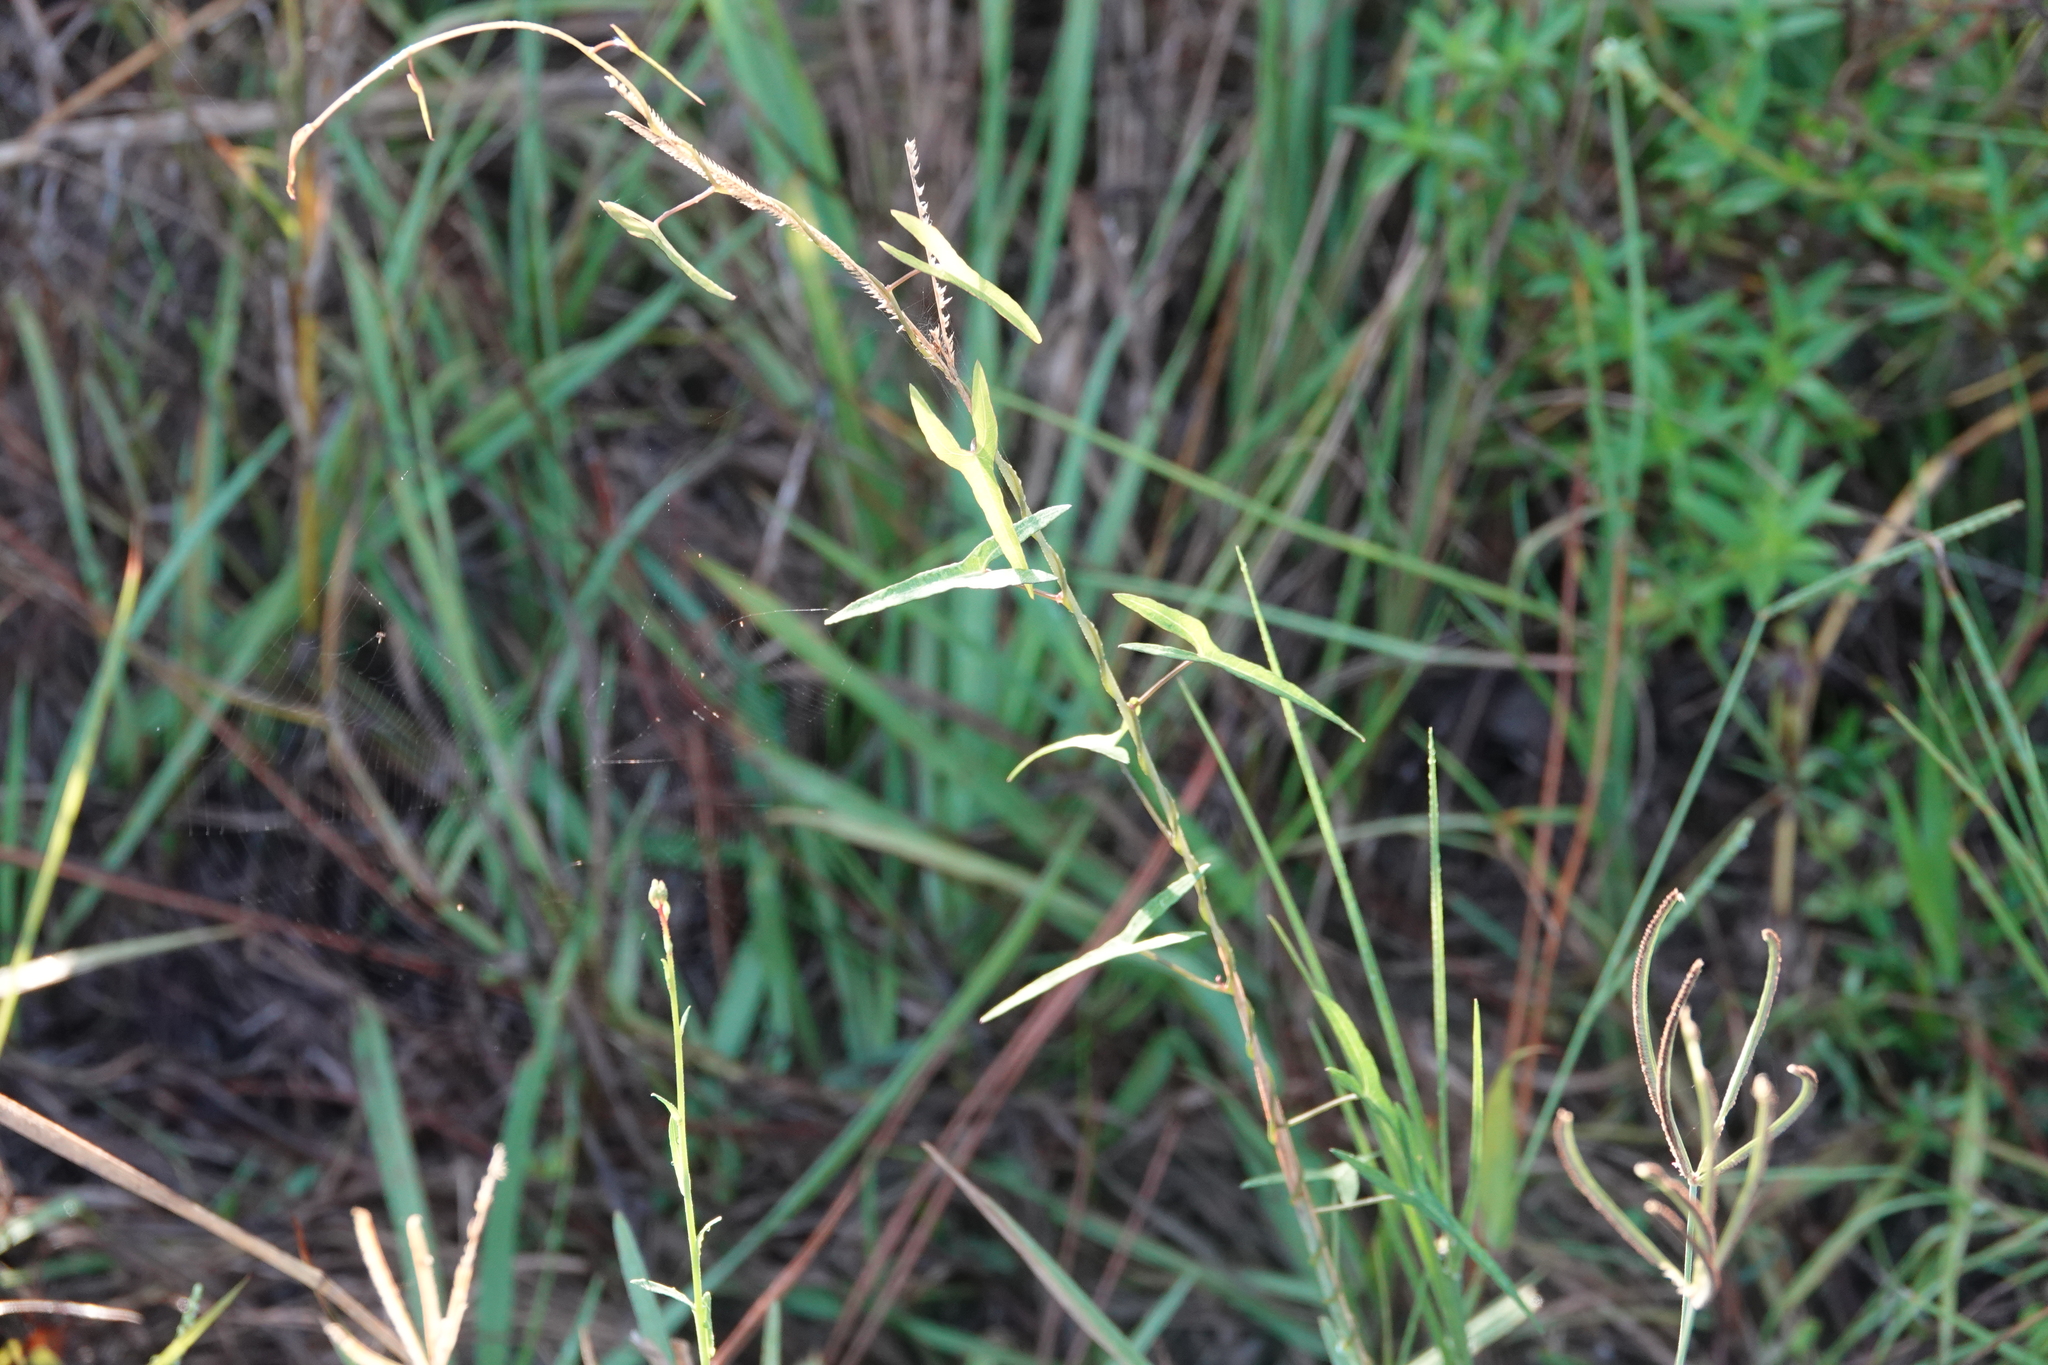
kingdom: Plantae
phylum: Tracheophyta
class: Magnoliopsida
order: Solanales
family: Convolvulaceae
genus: Ipomoea
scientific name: Ipomoea sagittata
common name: Saltmarsh morning glory
